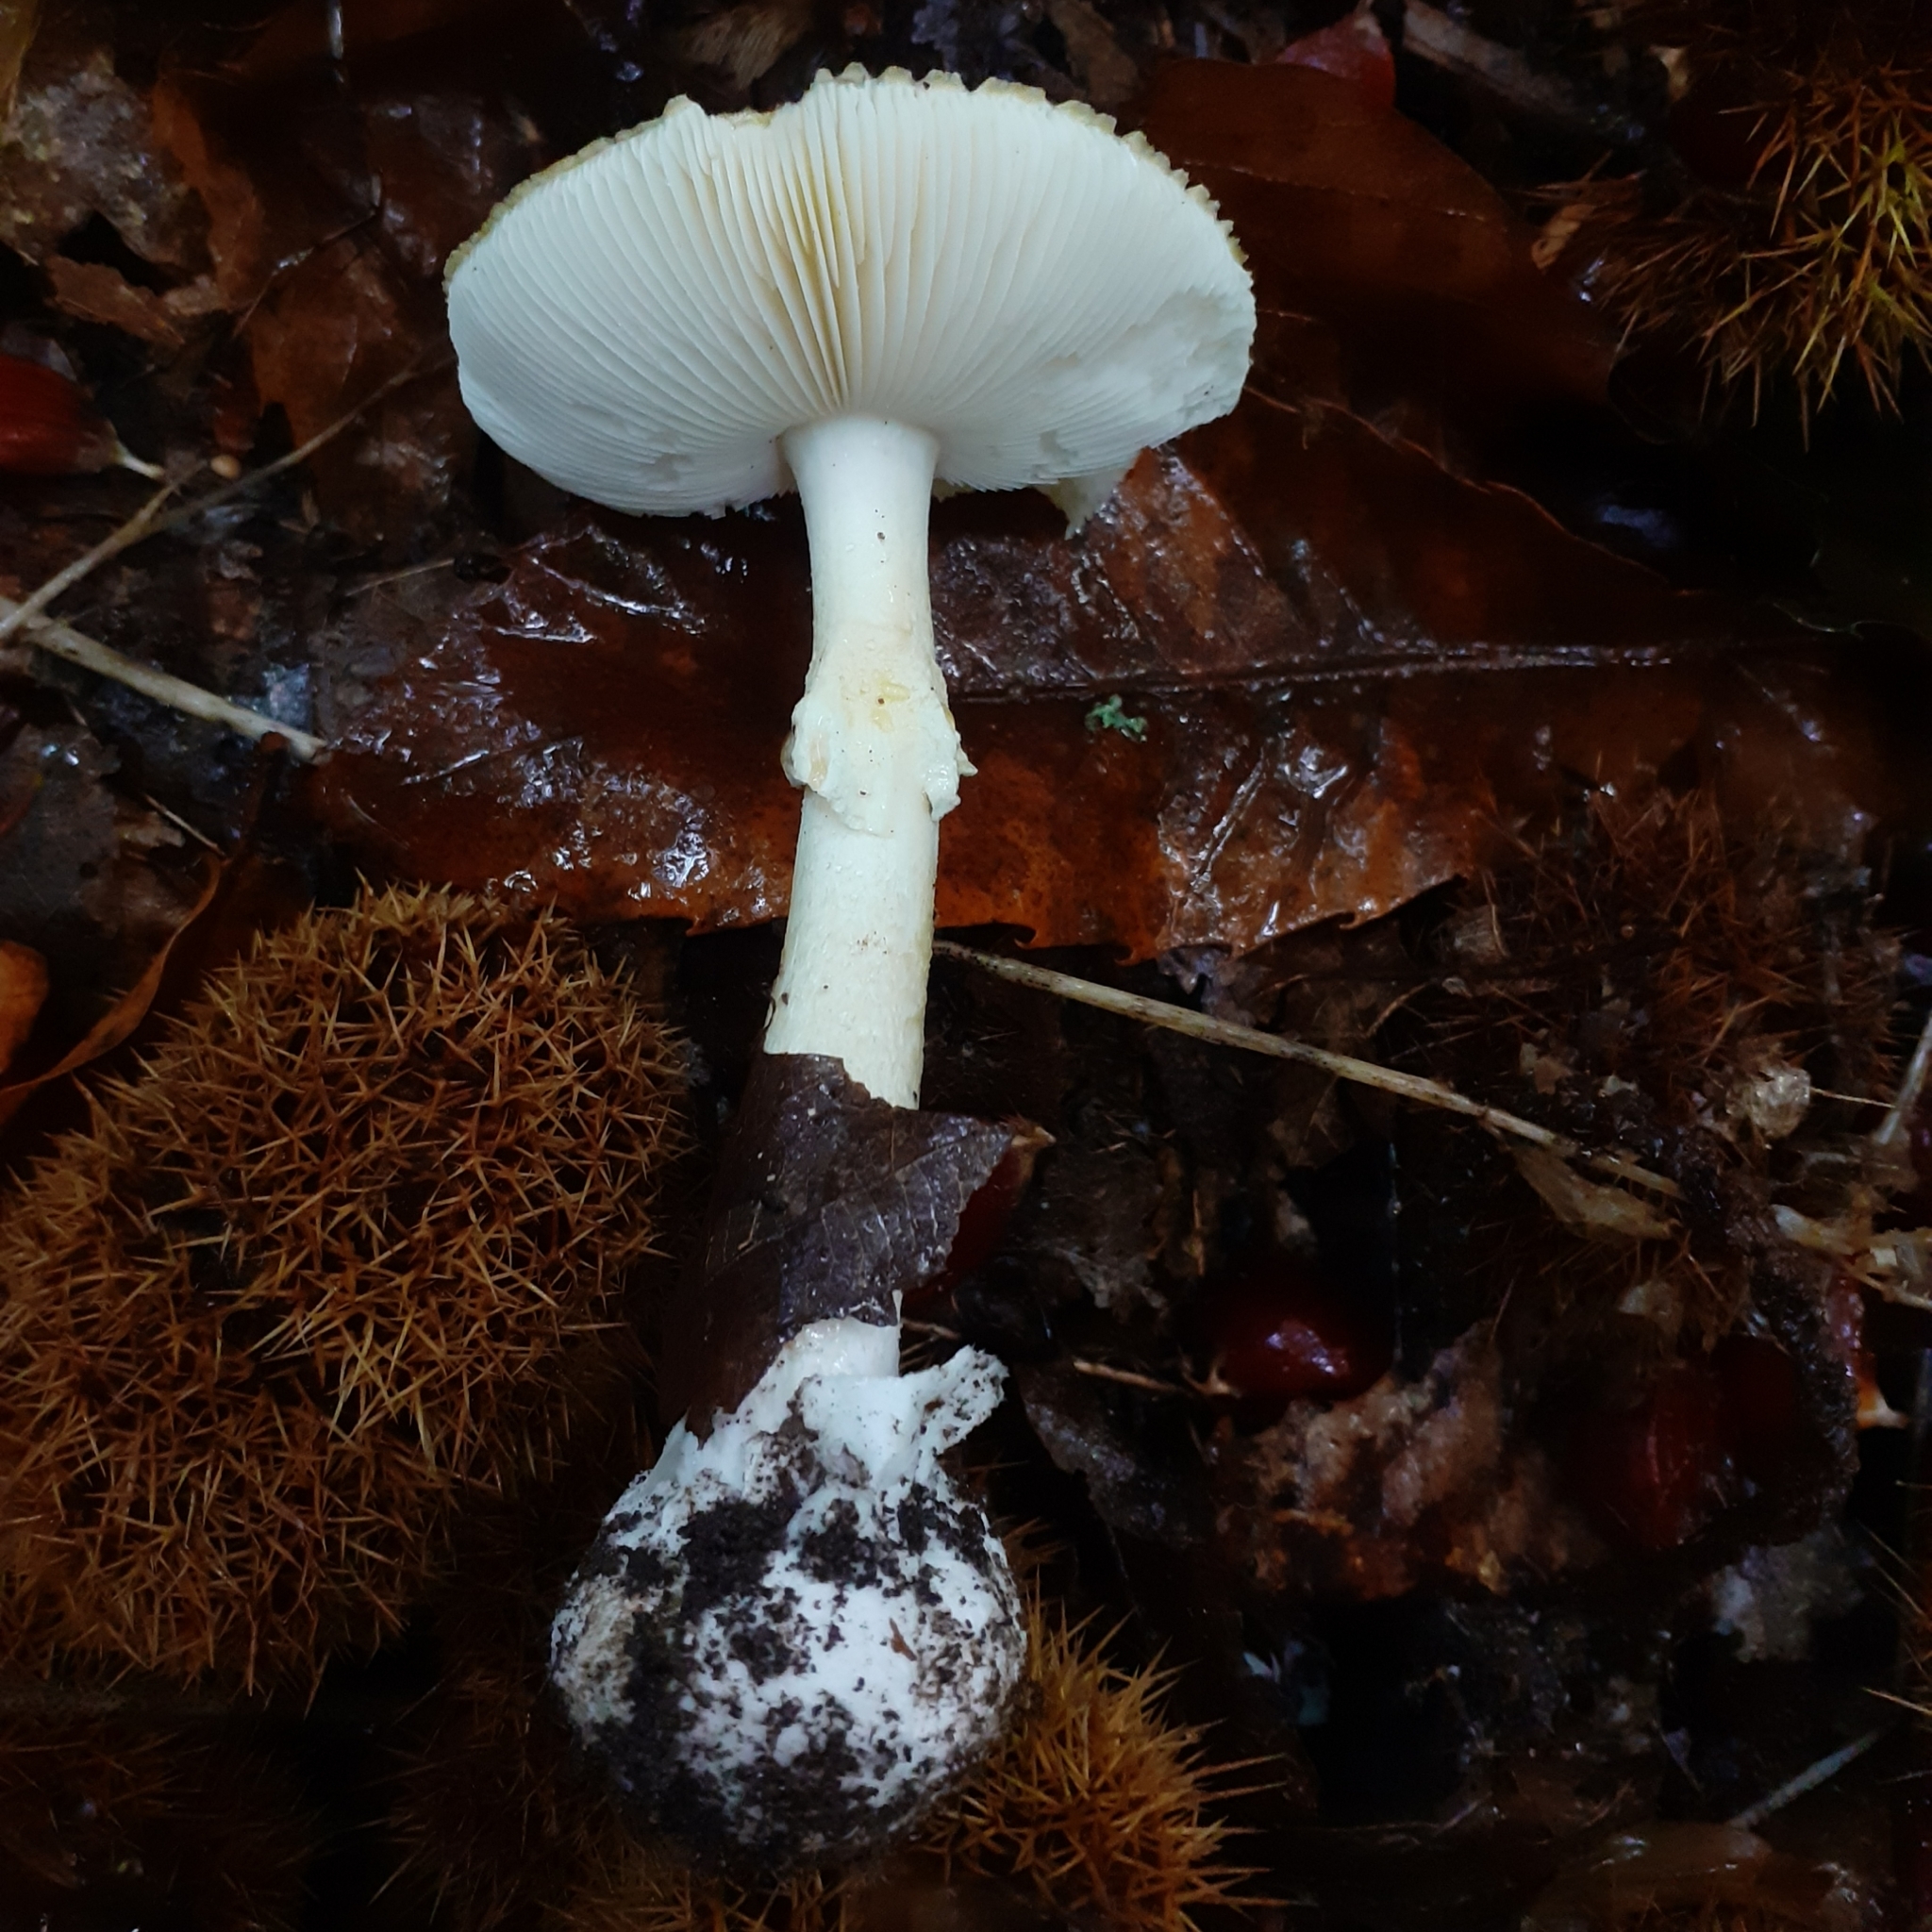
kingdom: Fungi
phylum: Basidiomycota
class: Agaricomycetes
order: Agaricales
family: Amanitaceae
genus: Amanita
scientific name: Amanita phalloides
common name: Death cap
